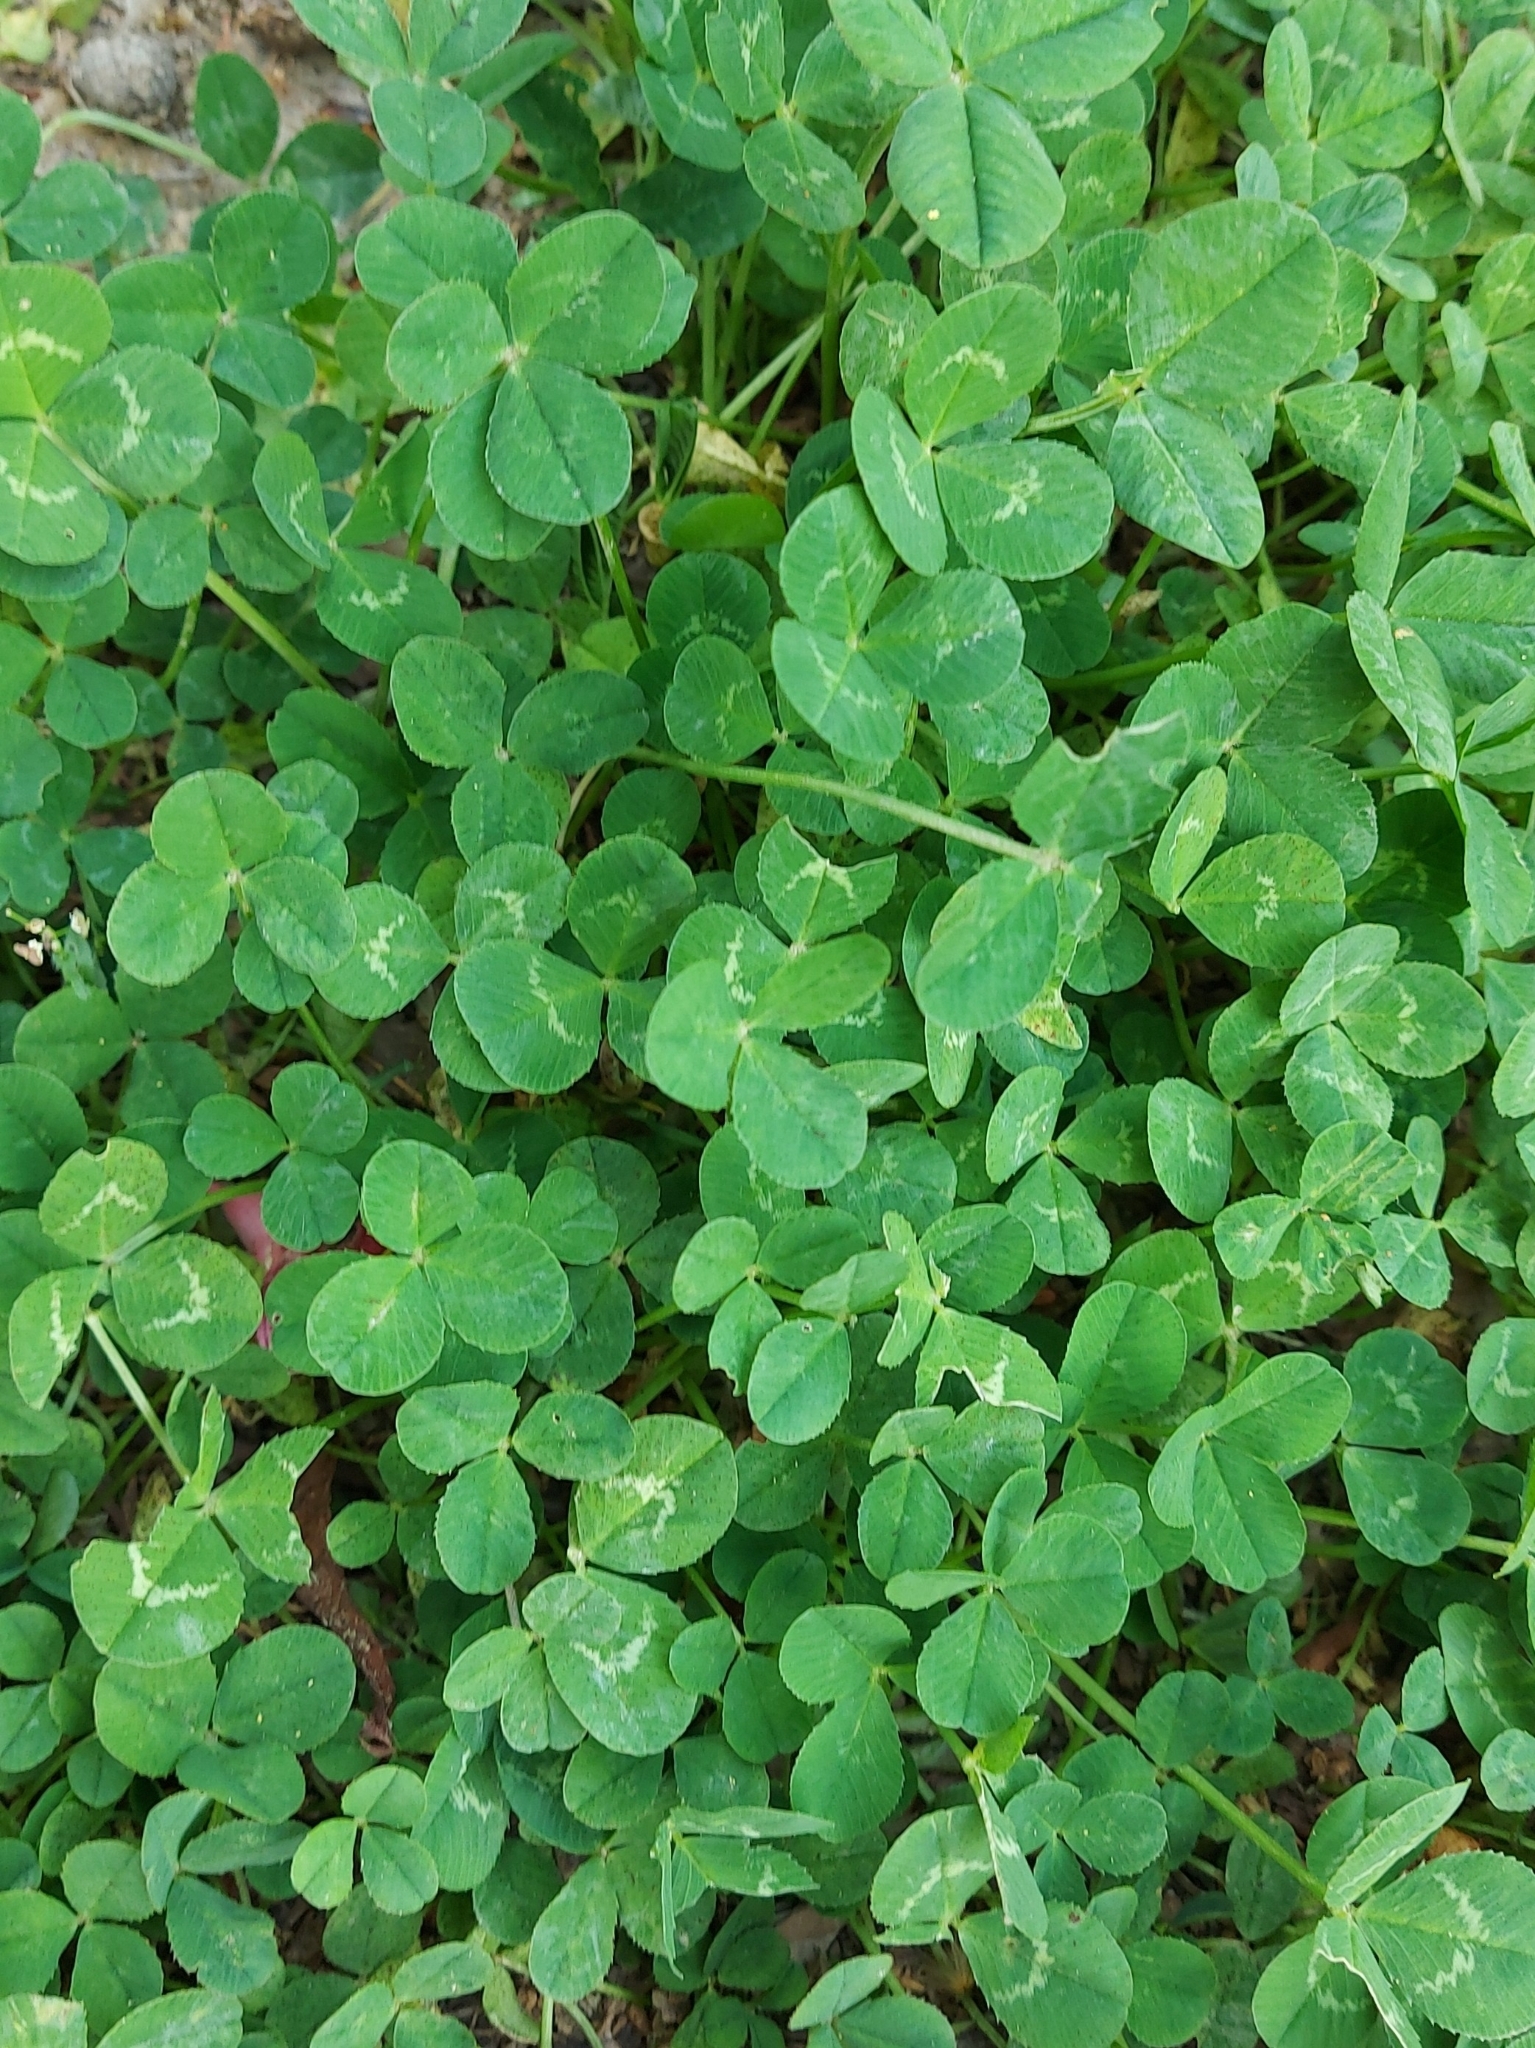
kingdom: Plantae
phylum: Tracheophyta
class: Magnoliopsida
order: Fabales
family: Fabaceae
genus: Trifolium
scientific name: Trifolium repens
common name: White clover
